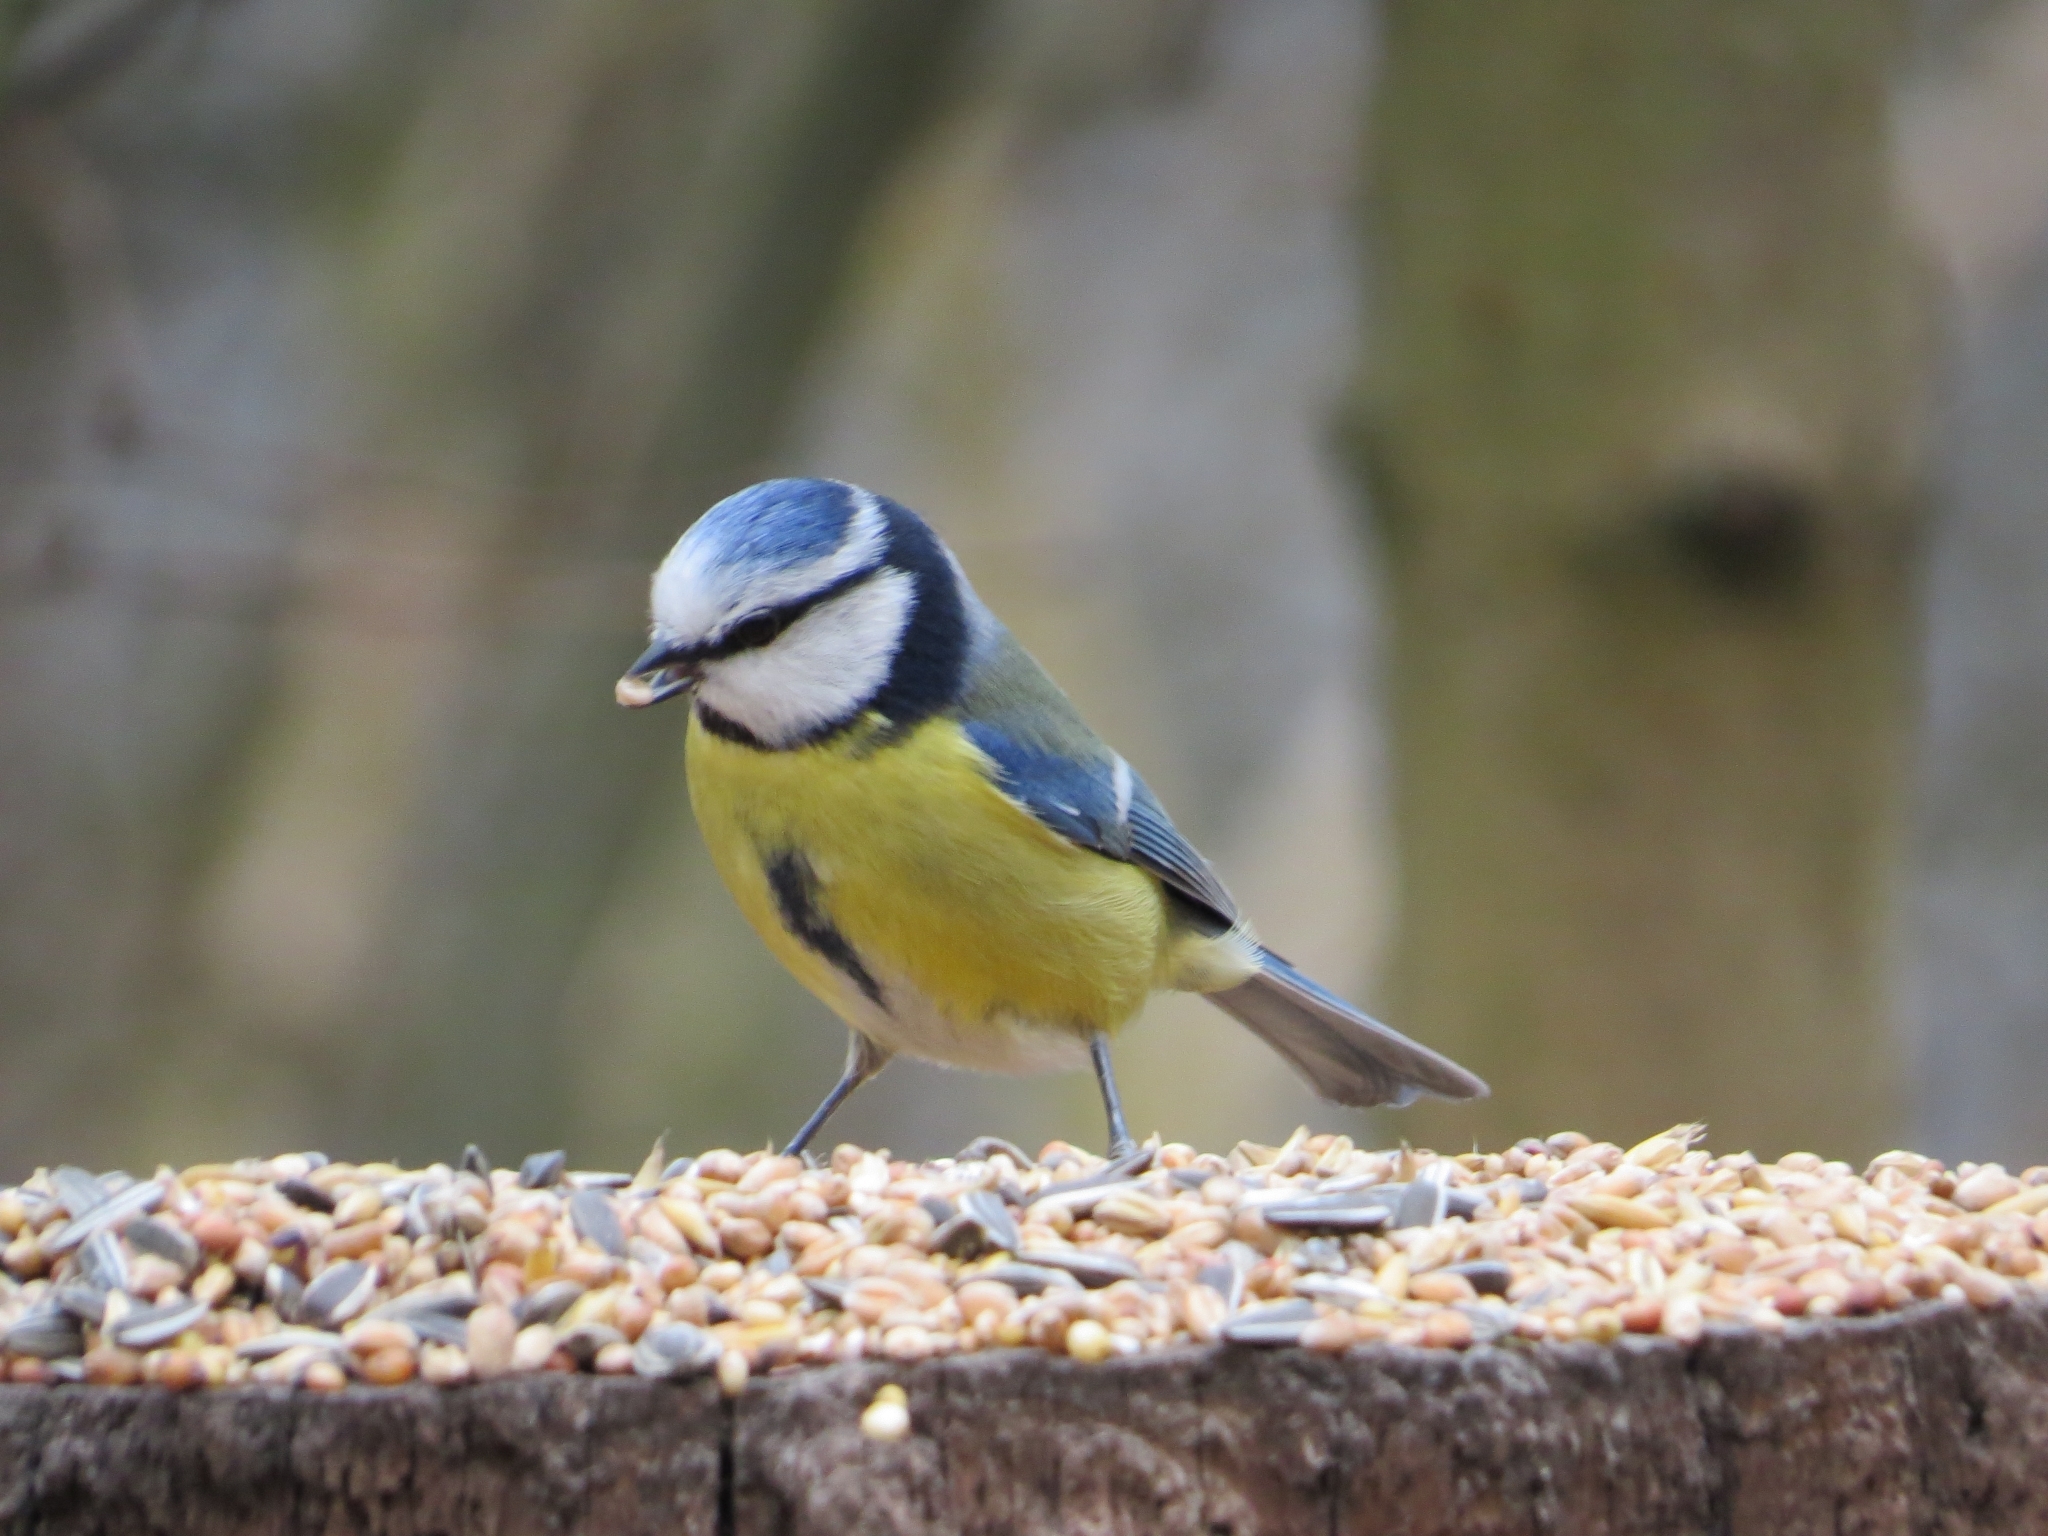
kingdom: Animalia
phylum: Chordata
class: Aves
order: Passeriformes
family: Paridae
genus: Cyanistes
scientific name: Cyanistes caeruleus
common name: Eurasian blue tit
